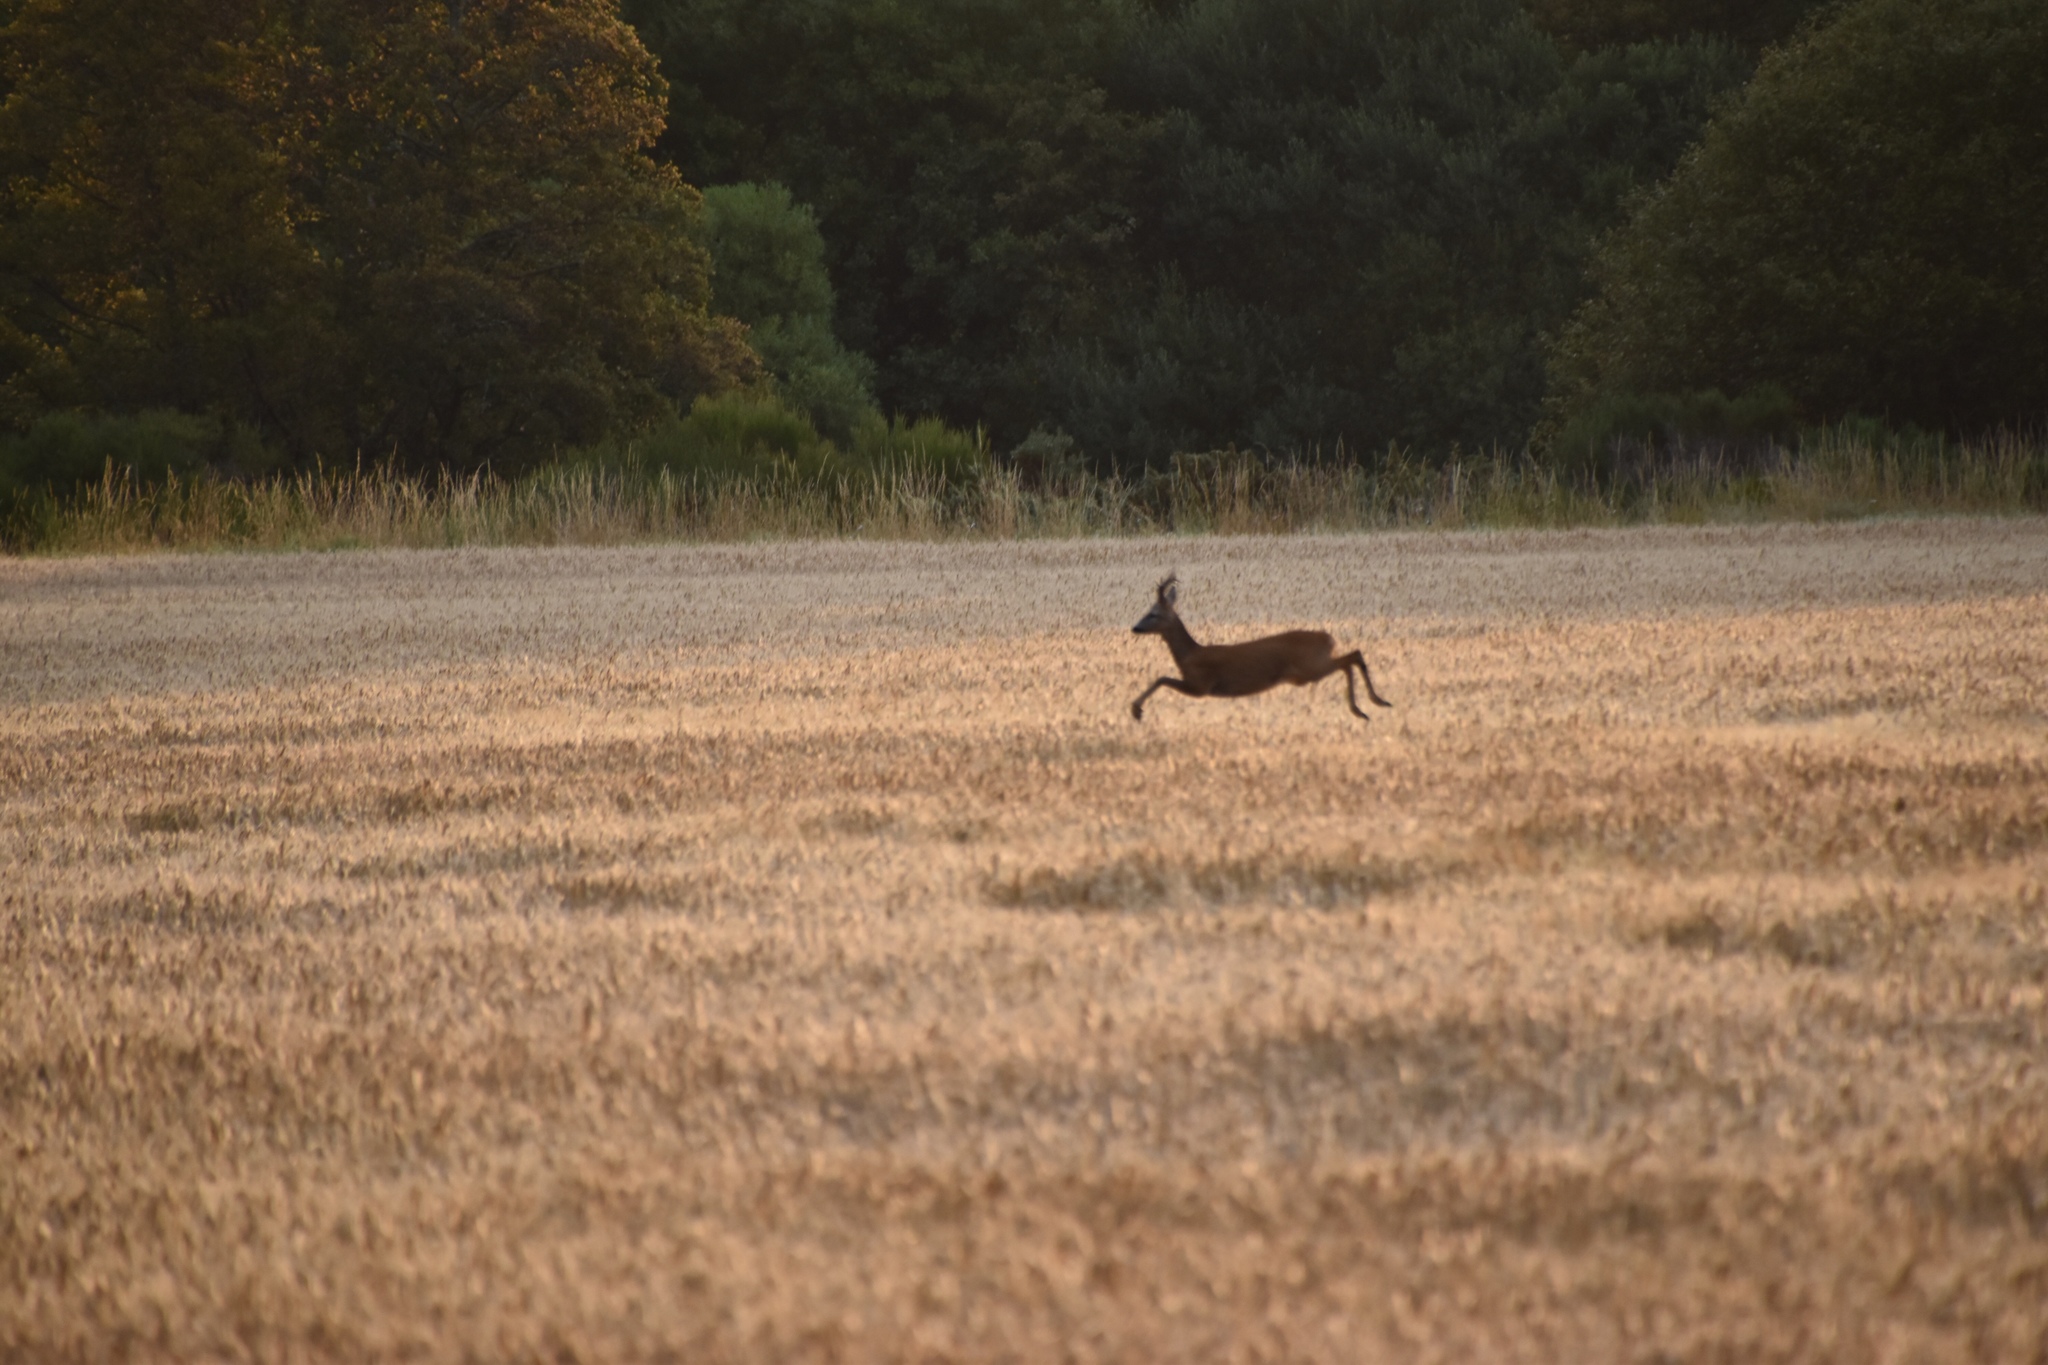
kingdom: Animalia
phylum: Chordata
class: Mammalia
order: Artiodactyla
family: Cervidae
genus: Capreolus
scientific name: Capreolus capreolus
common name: Western roe deer
